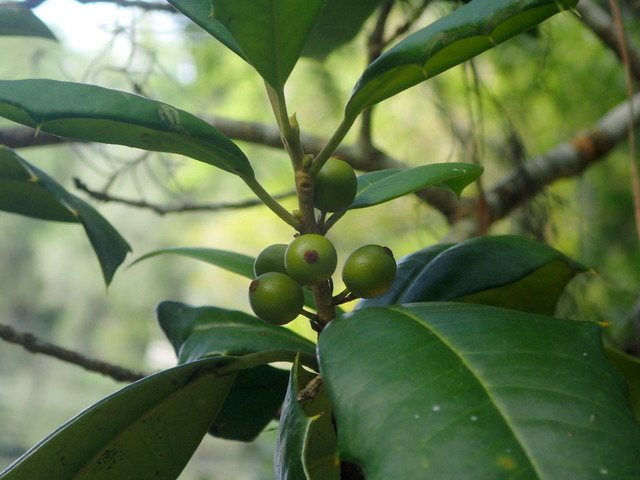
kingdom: Plantae
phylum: Tracheophyta
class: Magnoliopsida
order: Aquifoliales
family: Aquifoliaceae
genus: Ilex
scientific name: Ilex opaca
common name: American holly
